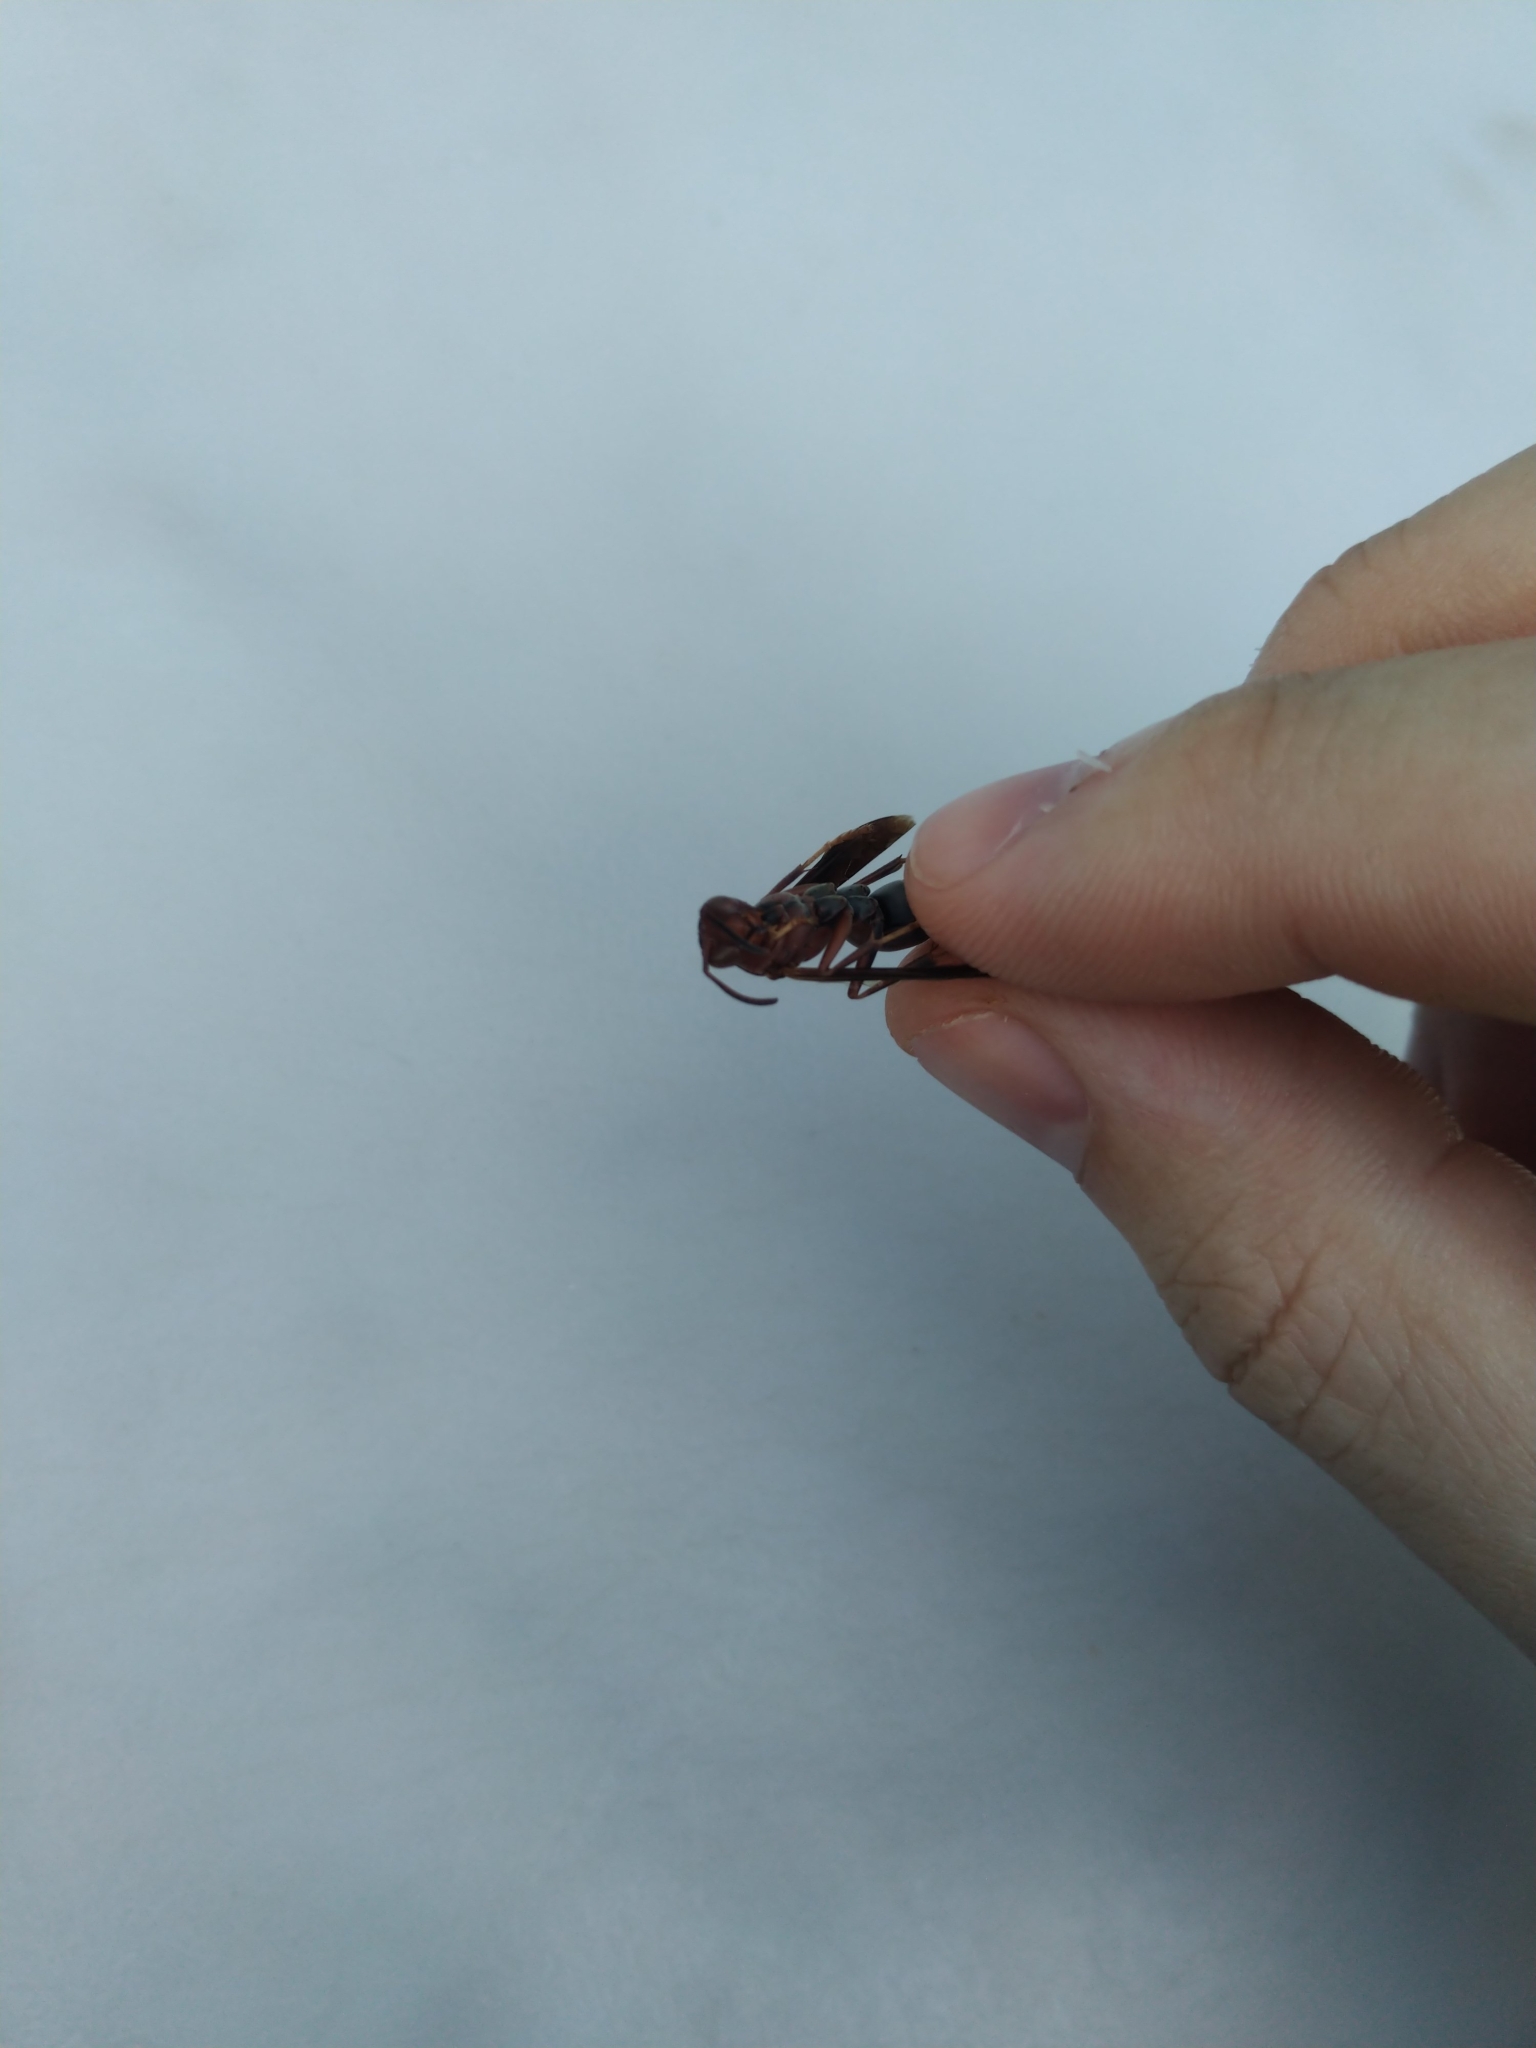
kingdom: Animalia
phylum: Arthropoda
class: Insecta
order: Hymenoptera
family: Vespidae
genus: Fuscopolistes
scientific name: Fuscopolistes
